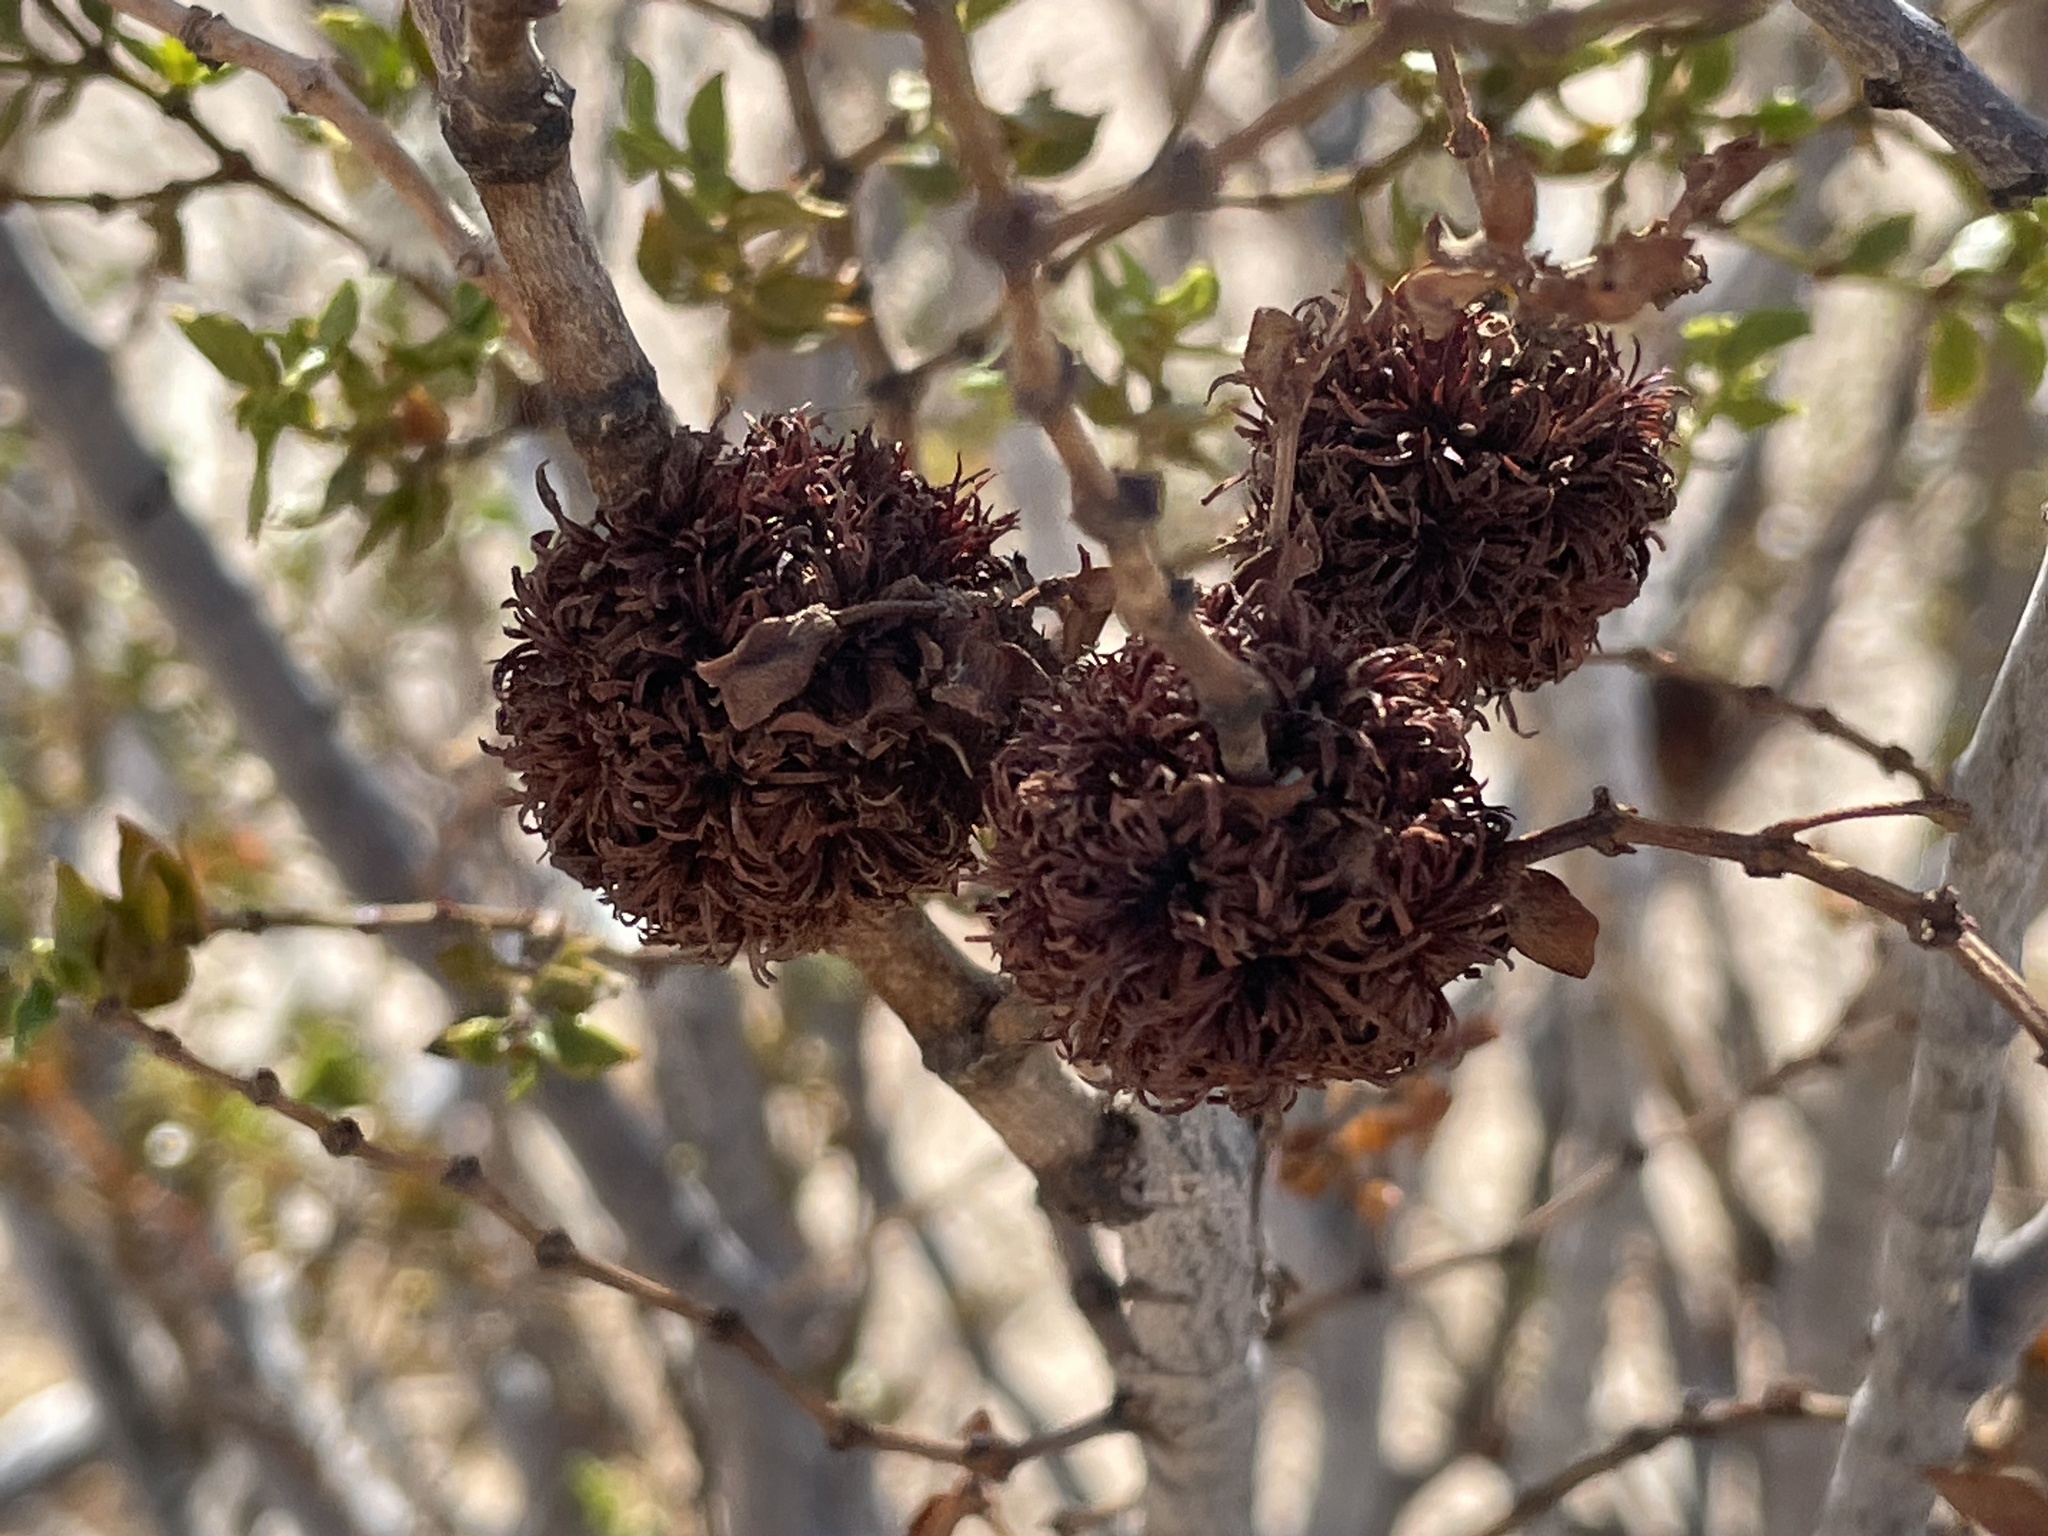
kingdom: Animalia
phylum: Arthropoda
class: Insecta
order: Diptera
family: Cecidomyiidae
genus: Asphondylia
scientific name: Asphondylia auripila
